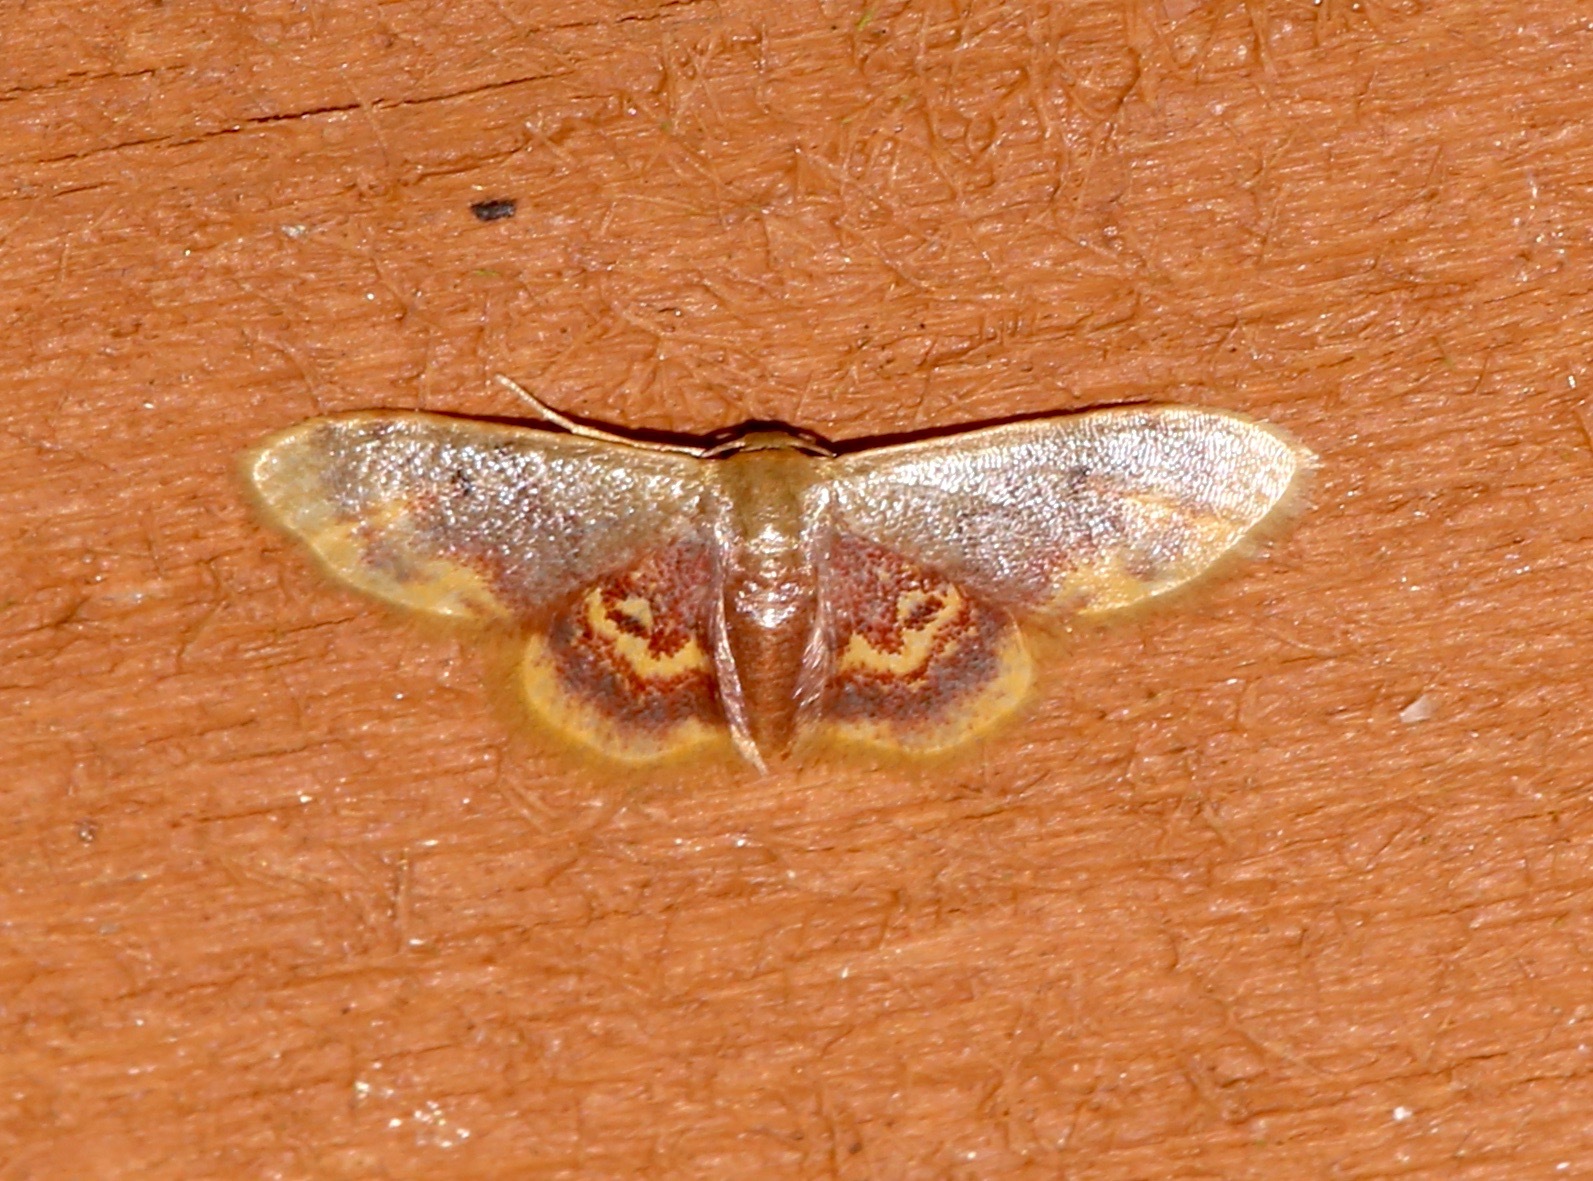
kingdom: Animalia
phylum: Arthropoda
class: Insecta
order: Lepidoptera
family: Geometridae
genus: Idaea
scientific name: Idaea scintillularia
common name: Diminutive wave
